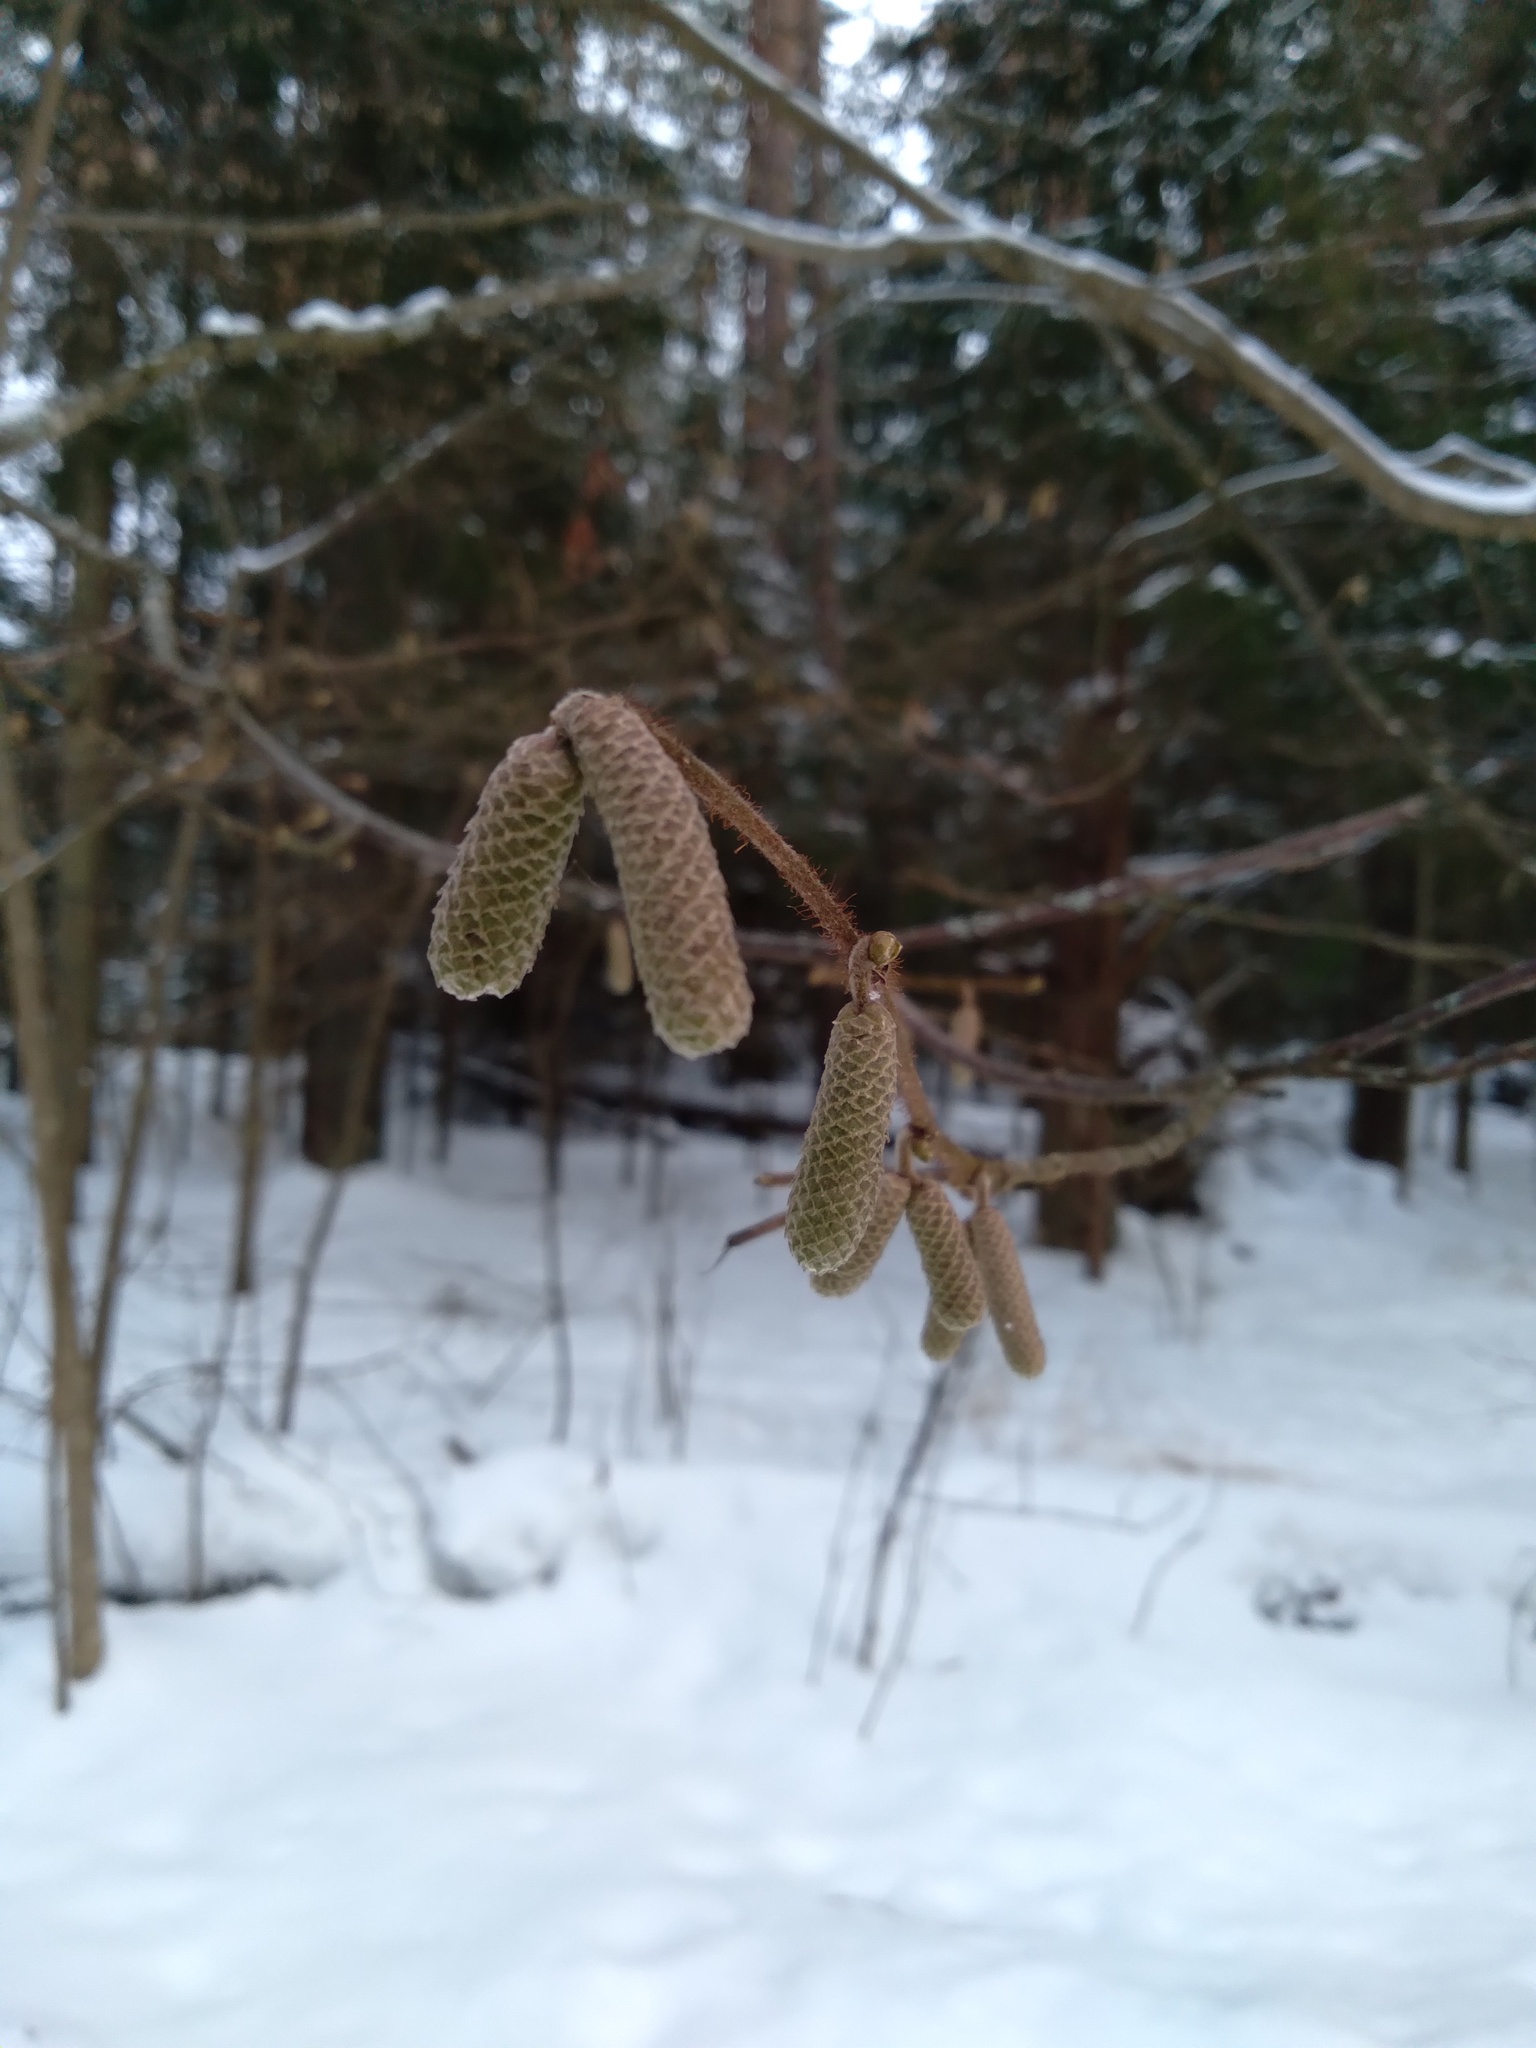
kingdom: Plantae
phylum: Tracheophyta
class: Magnoliopsida
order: Fagales
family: Betulaceae
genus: Corylus
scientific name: Corylus avellana
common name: European hazel
